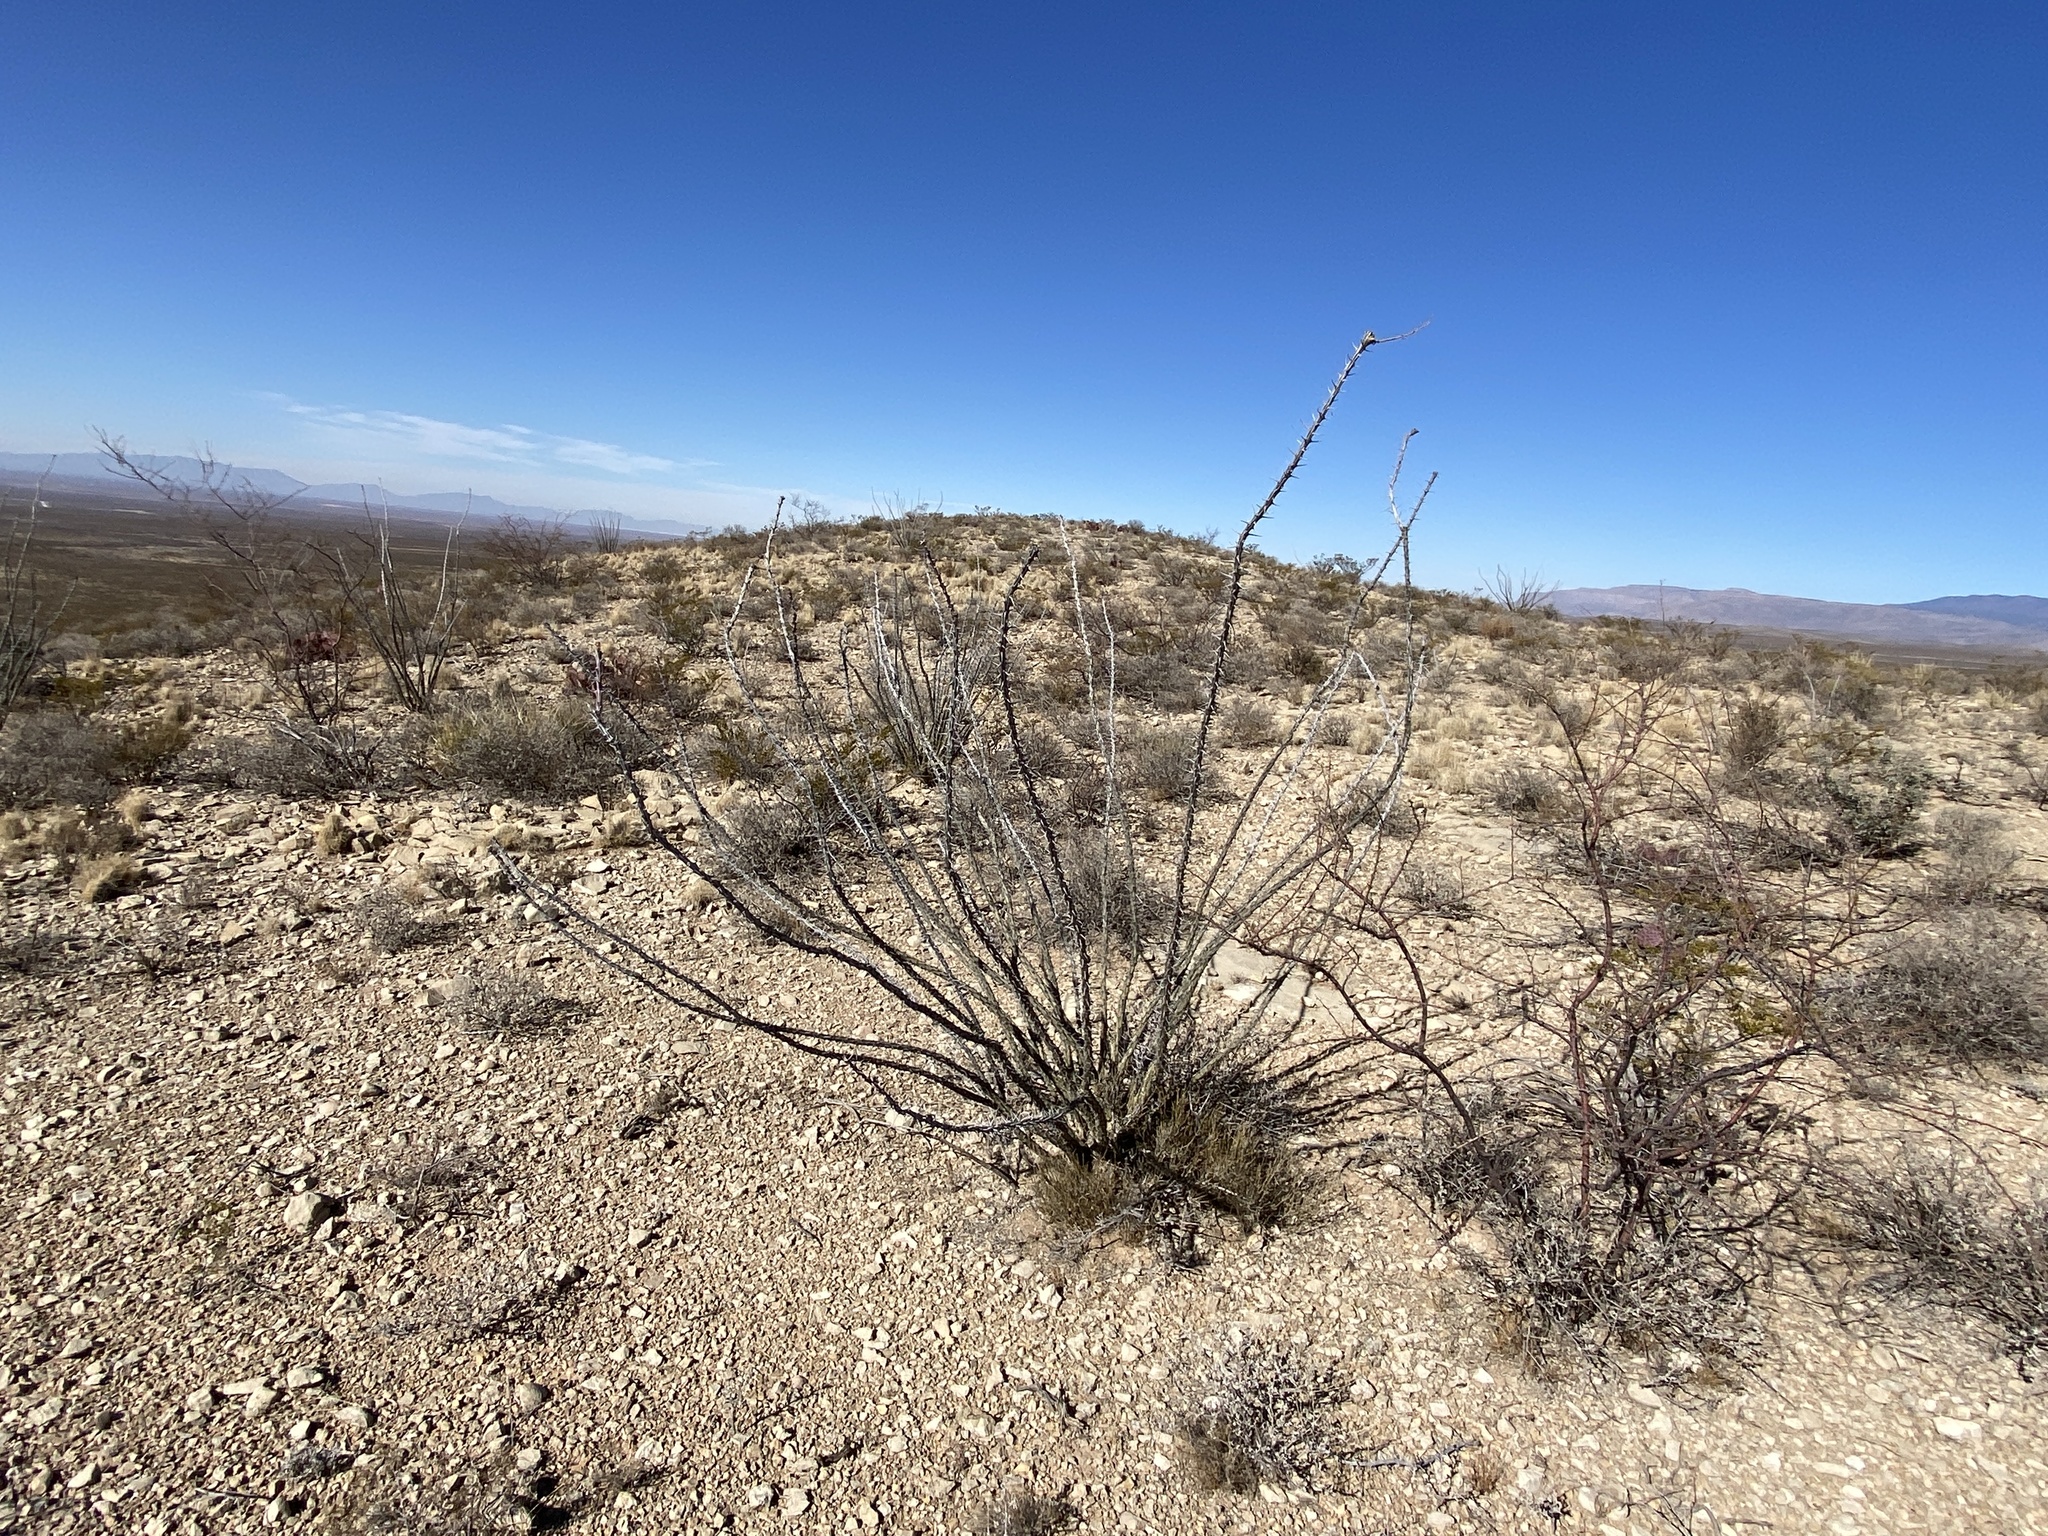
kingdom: Plantae
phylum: Tracheophyta
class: Magnoliopsida
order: Ericales
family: Fouquieriaceae
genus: Fouquieria
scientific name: Fouquieria splendens
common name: Vine-cactus
